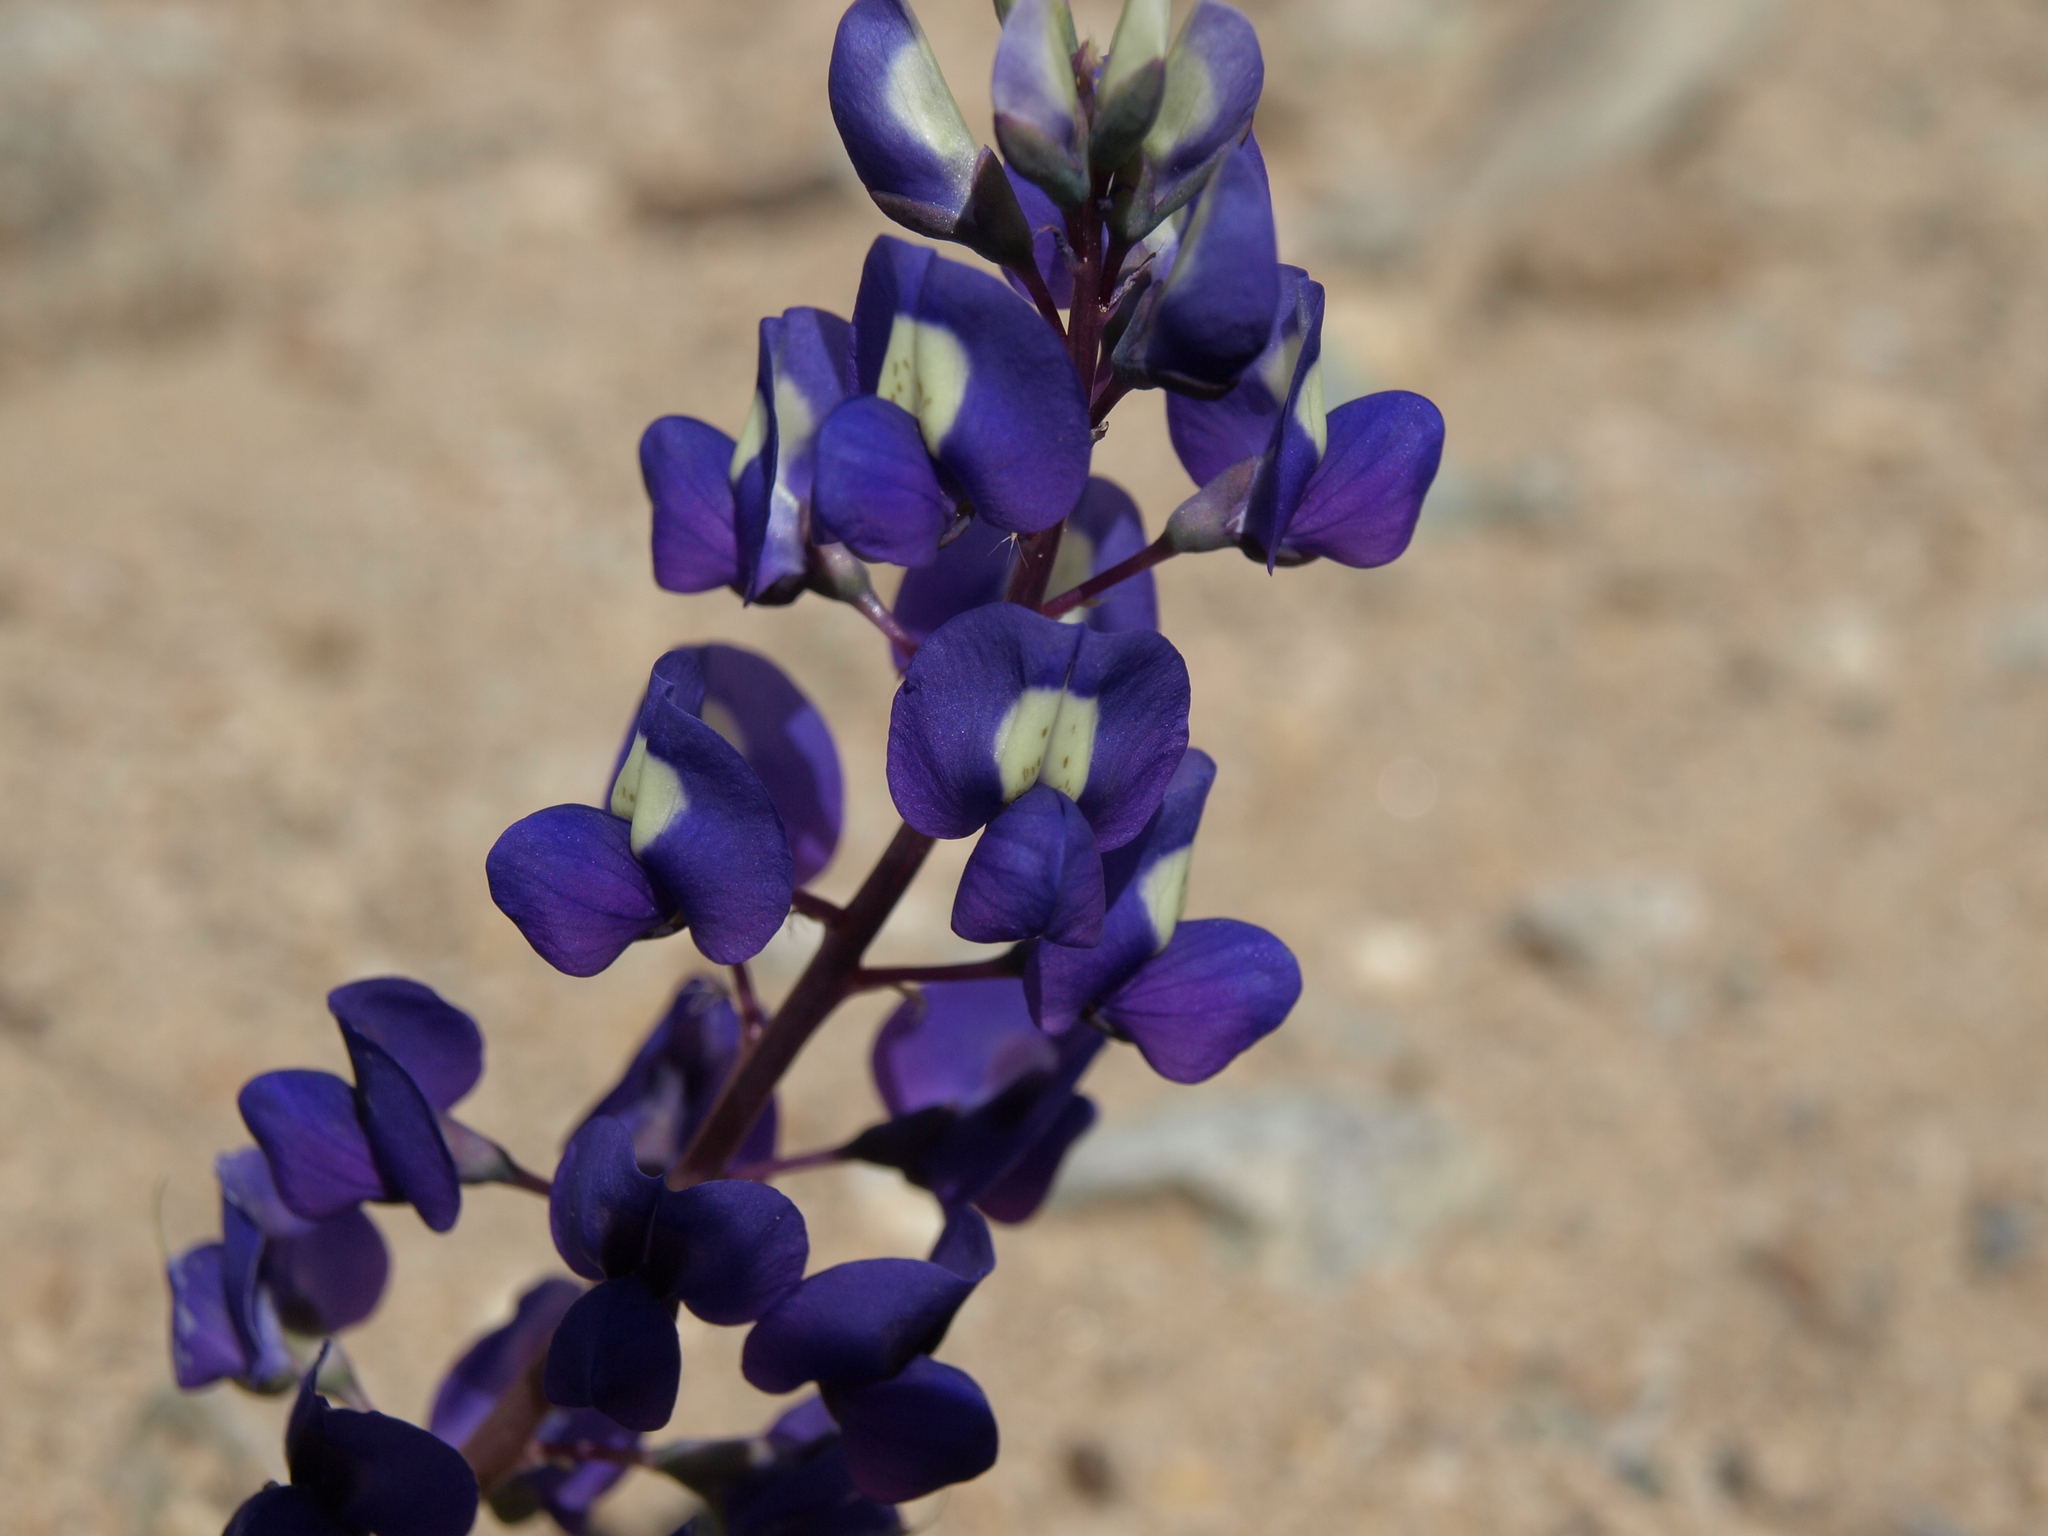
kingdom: Plantae
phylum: Tracheophyta
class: Magnoliopsida
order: Fabales
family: Fabaceae
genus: Lupinus
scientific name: Lupinus
